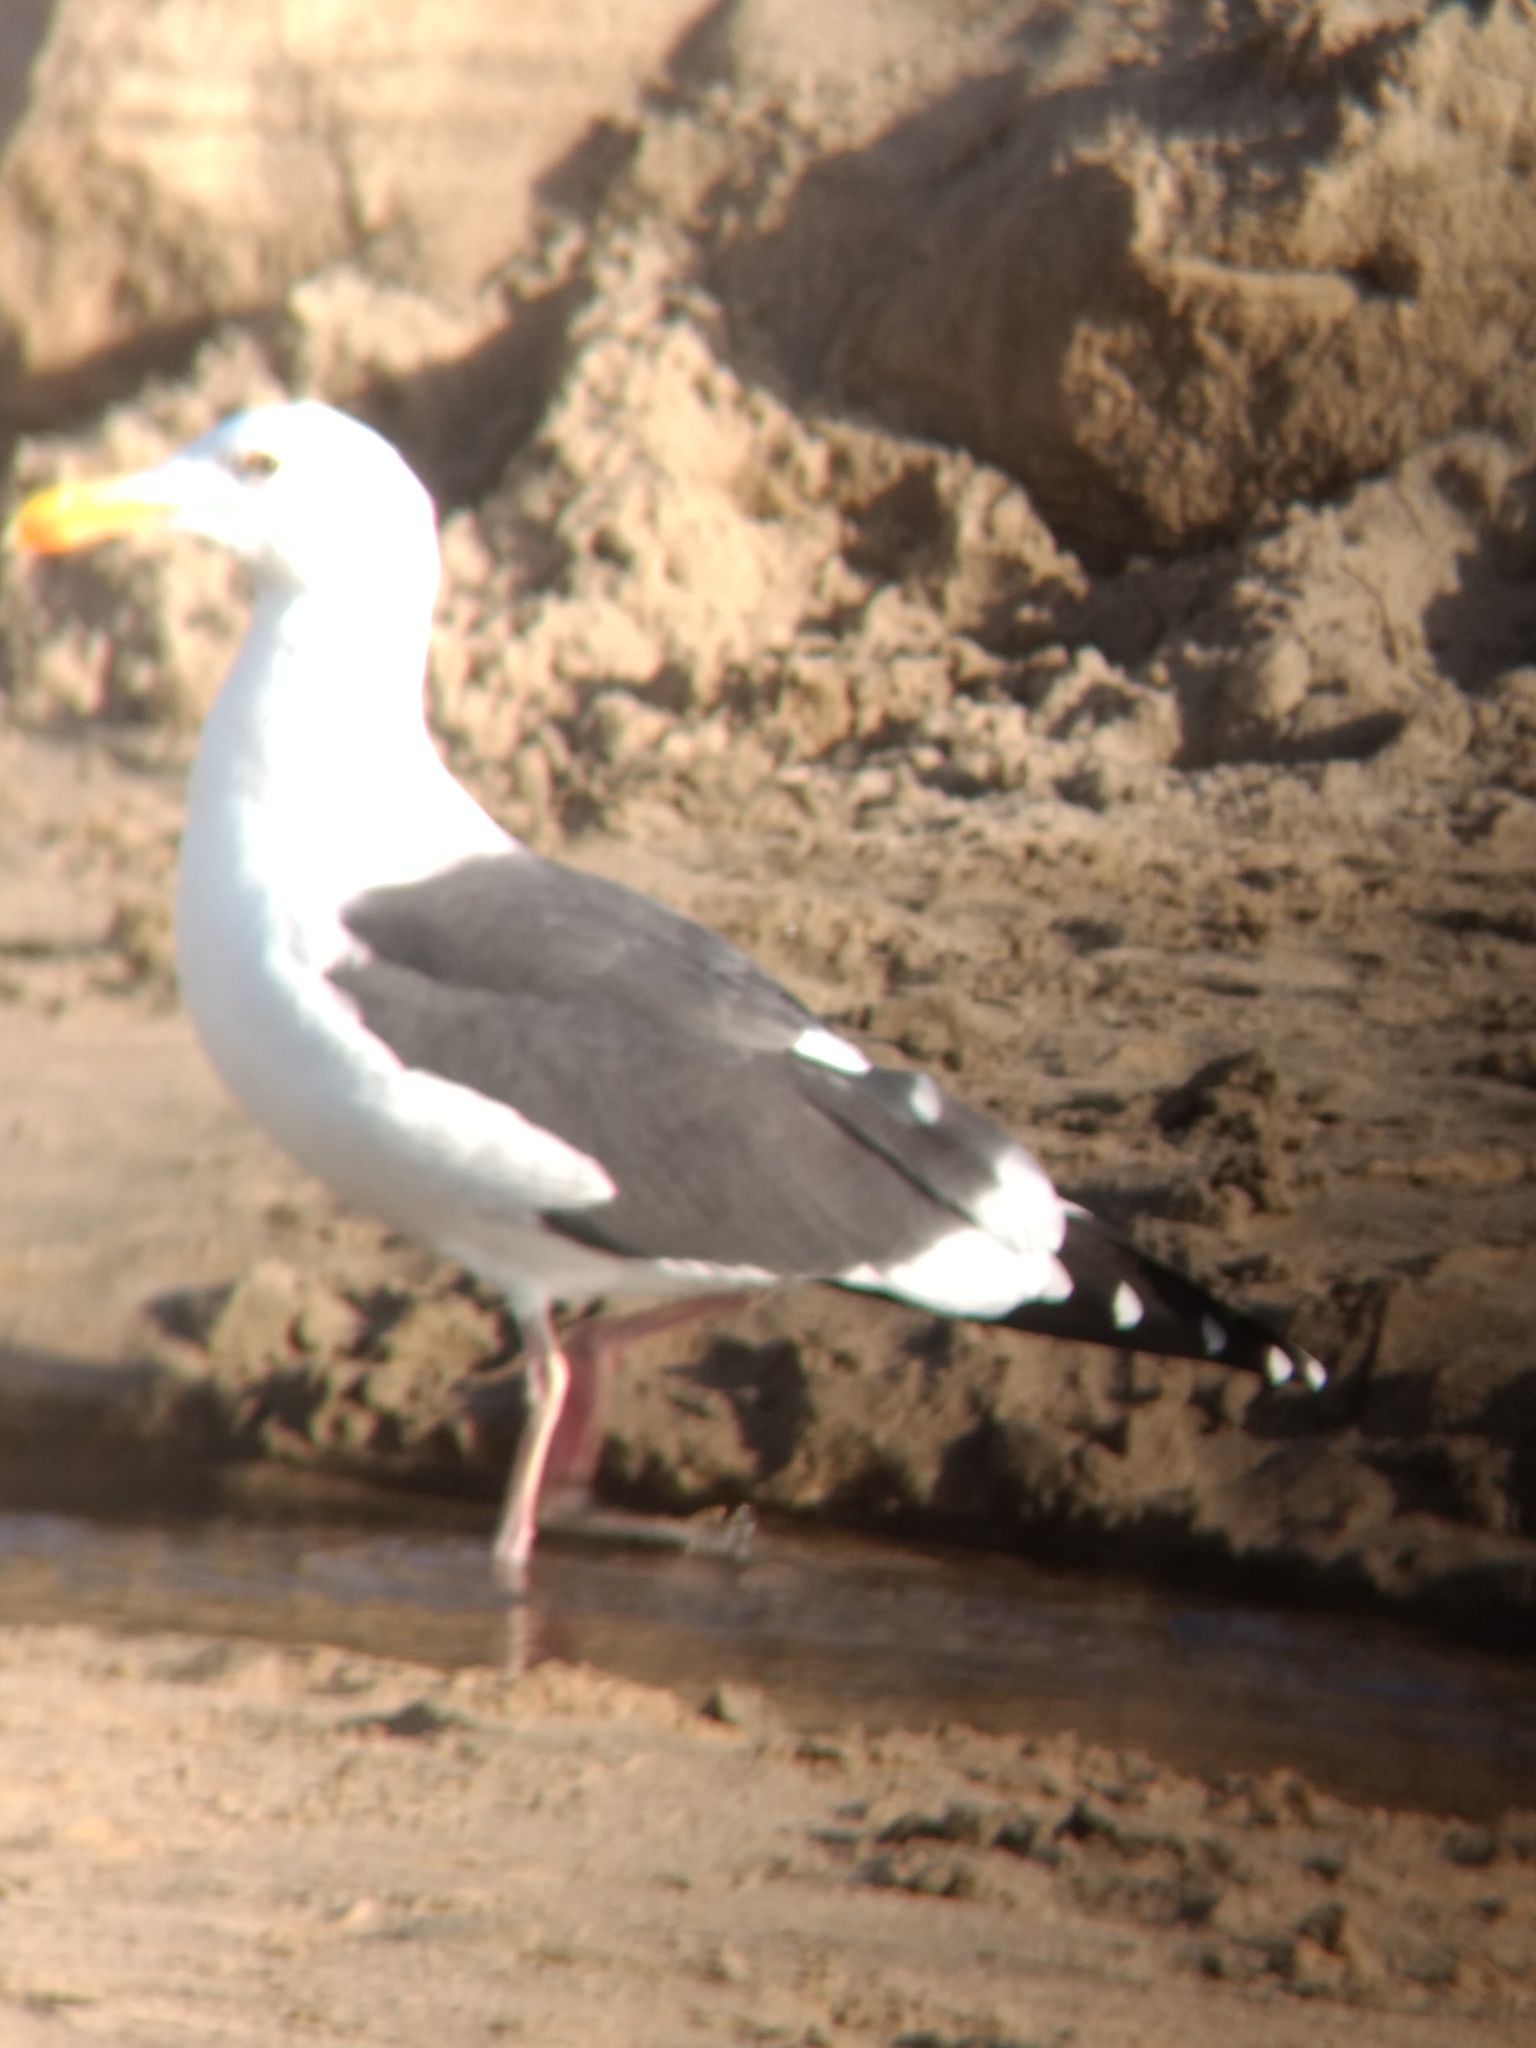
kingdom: Animalia
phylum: Chordata
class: Aves
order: Charadriiformes
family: Laridae
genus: Larus
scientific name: Larus occidentalis
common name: Western gull
